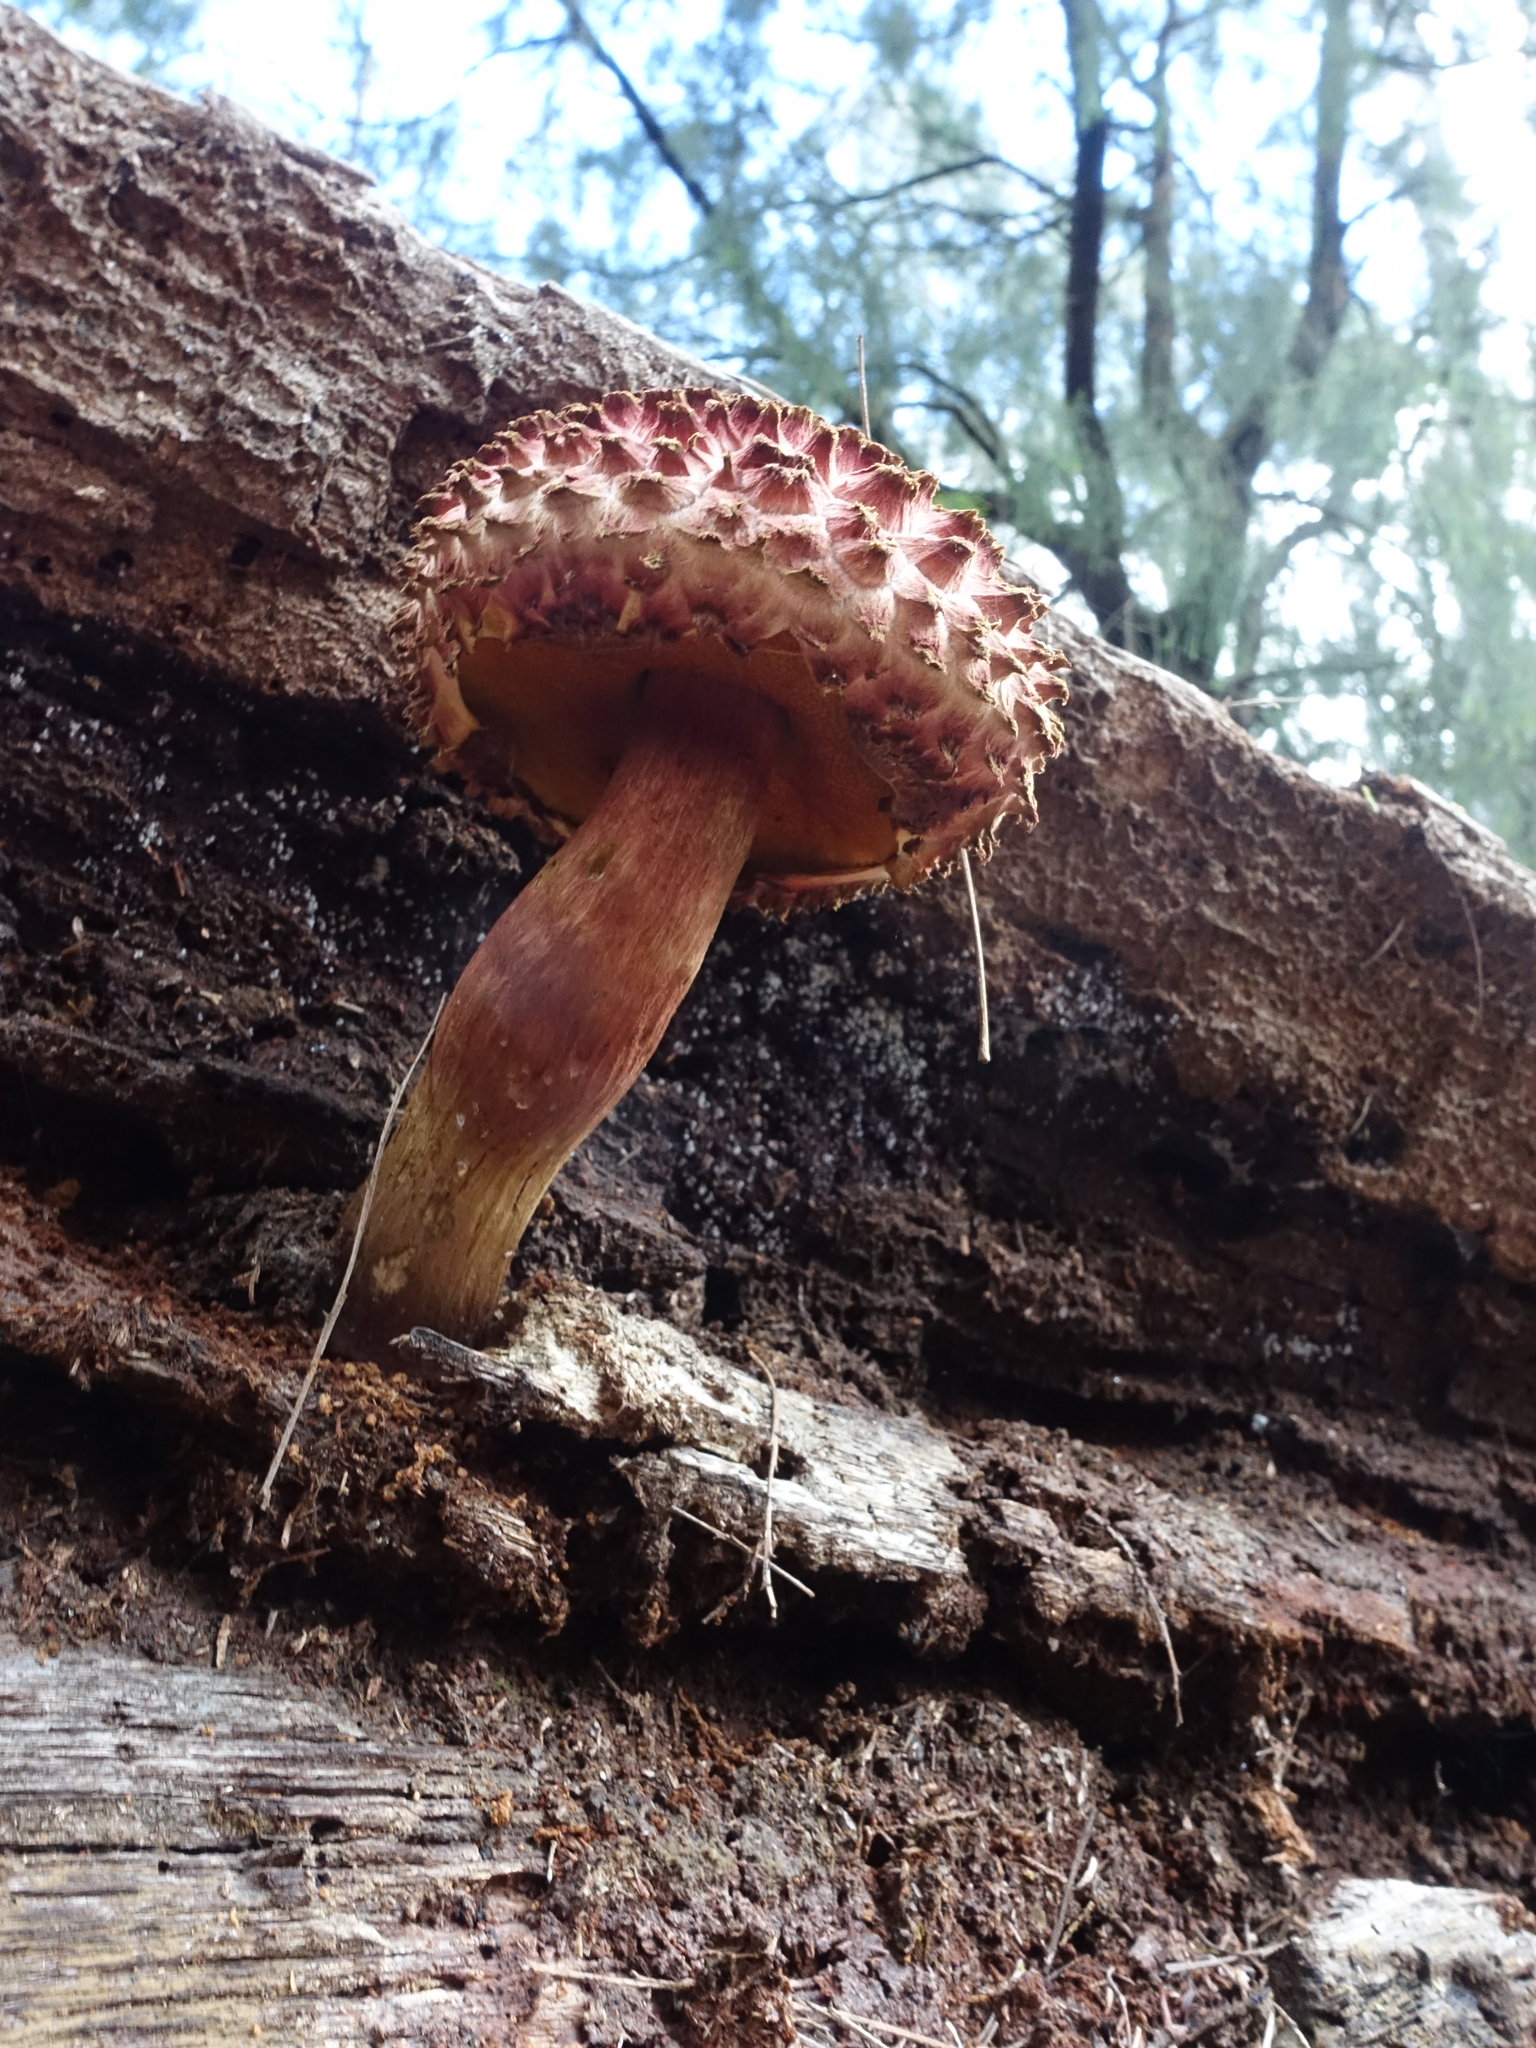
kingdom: Fungi
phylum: Basidiomycota
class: Agaricomycetes
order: Boletales
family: Boletaceae
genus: Boletellus
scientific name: Boletellus emodensis
